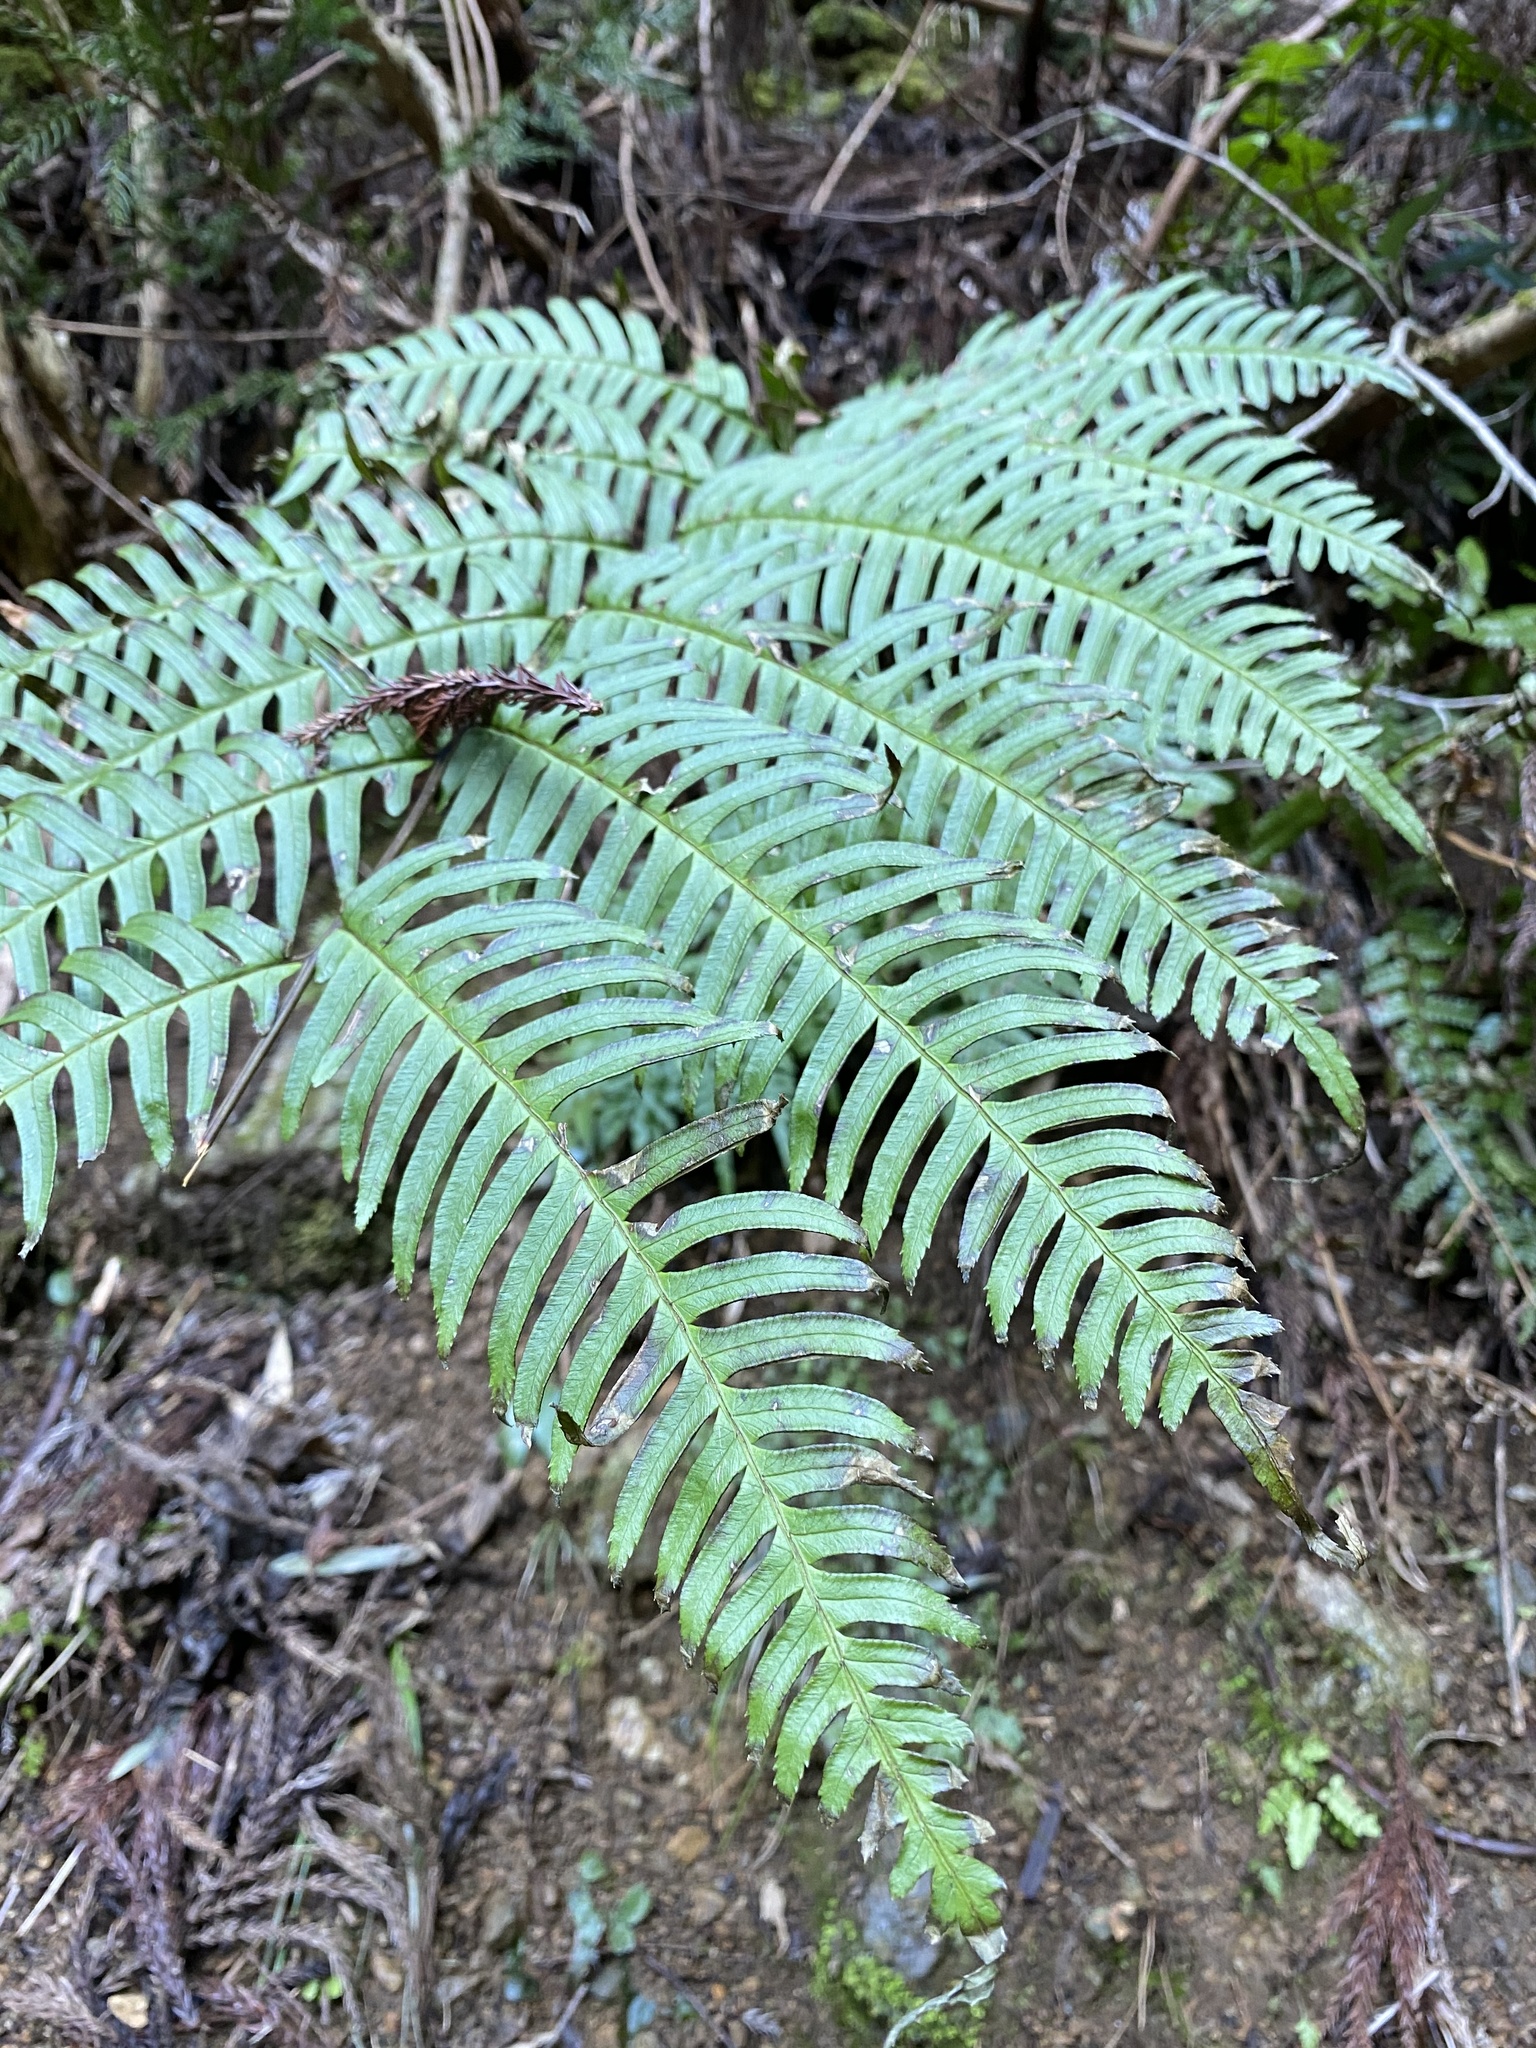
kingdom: Plantae
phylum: Tracheophyta
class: Polypodiopsida
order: Polypodiales
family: Pteridaceae
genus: Pteris
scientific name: Pteris terminalis
